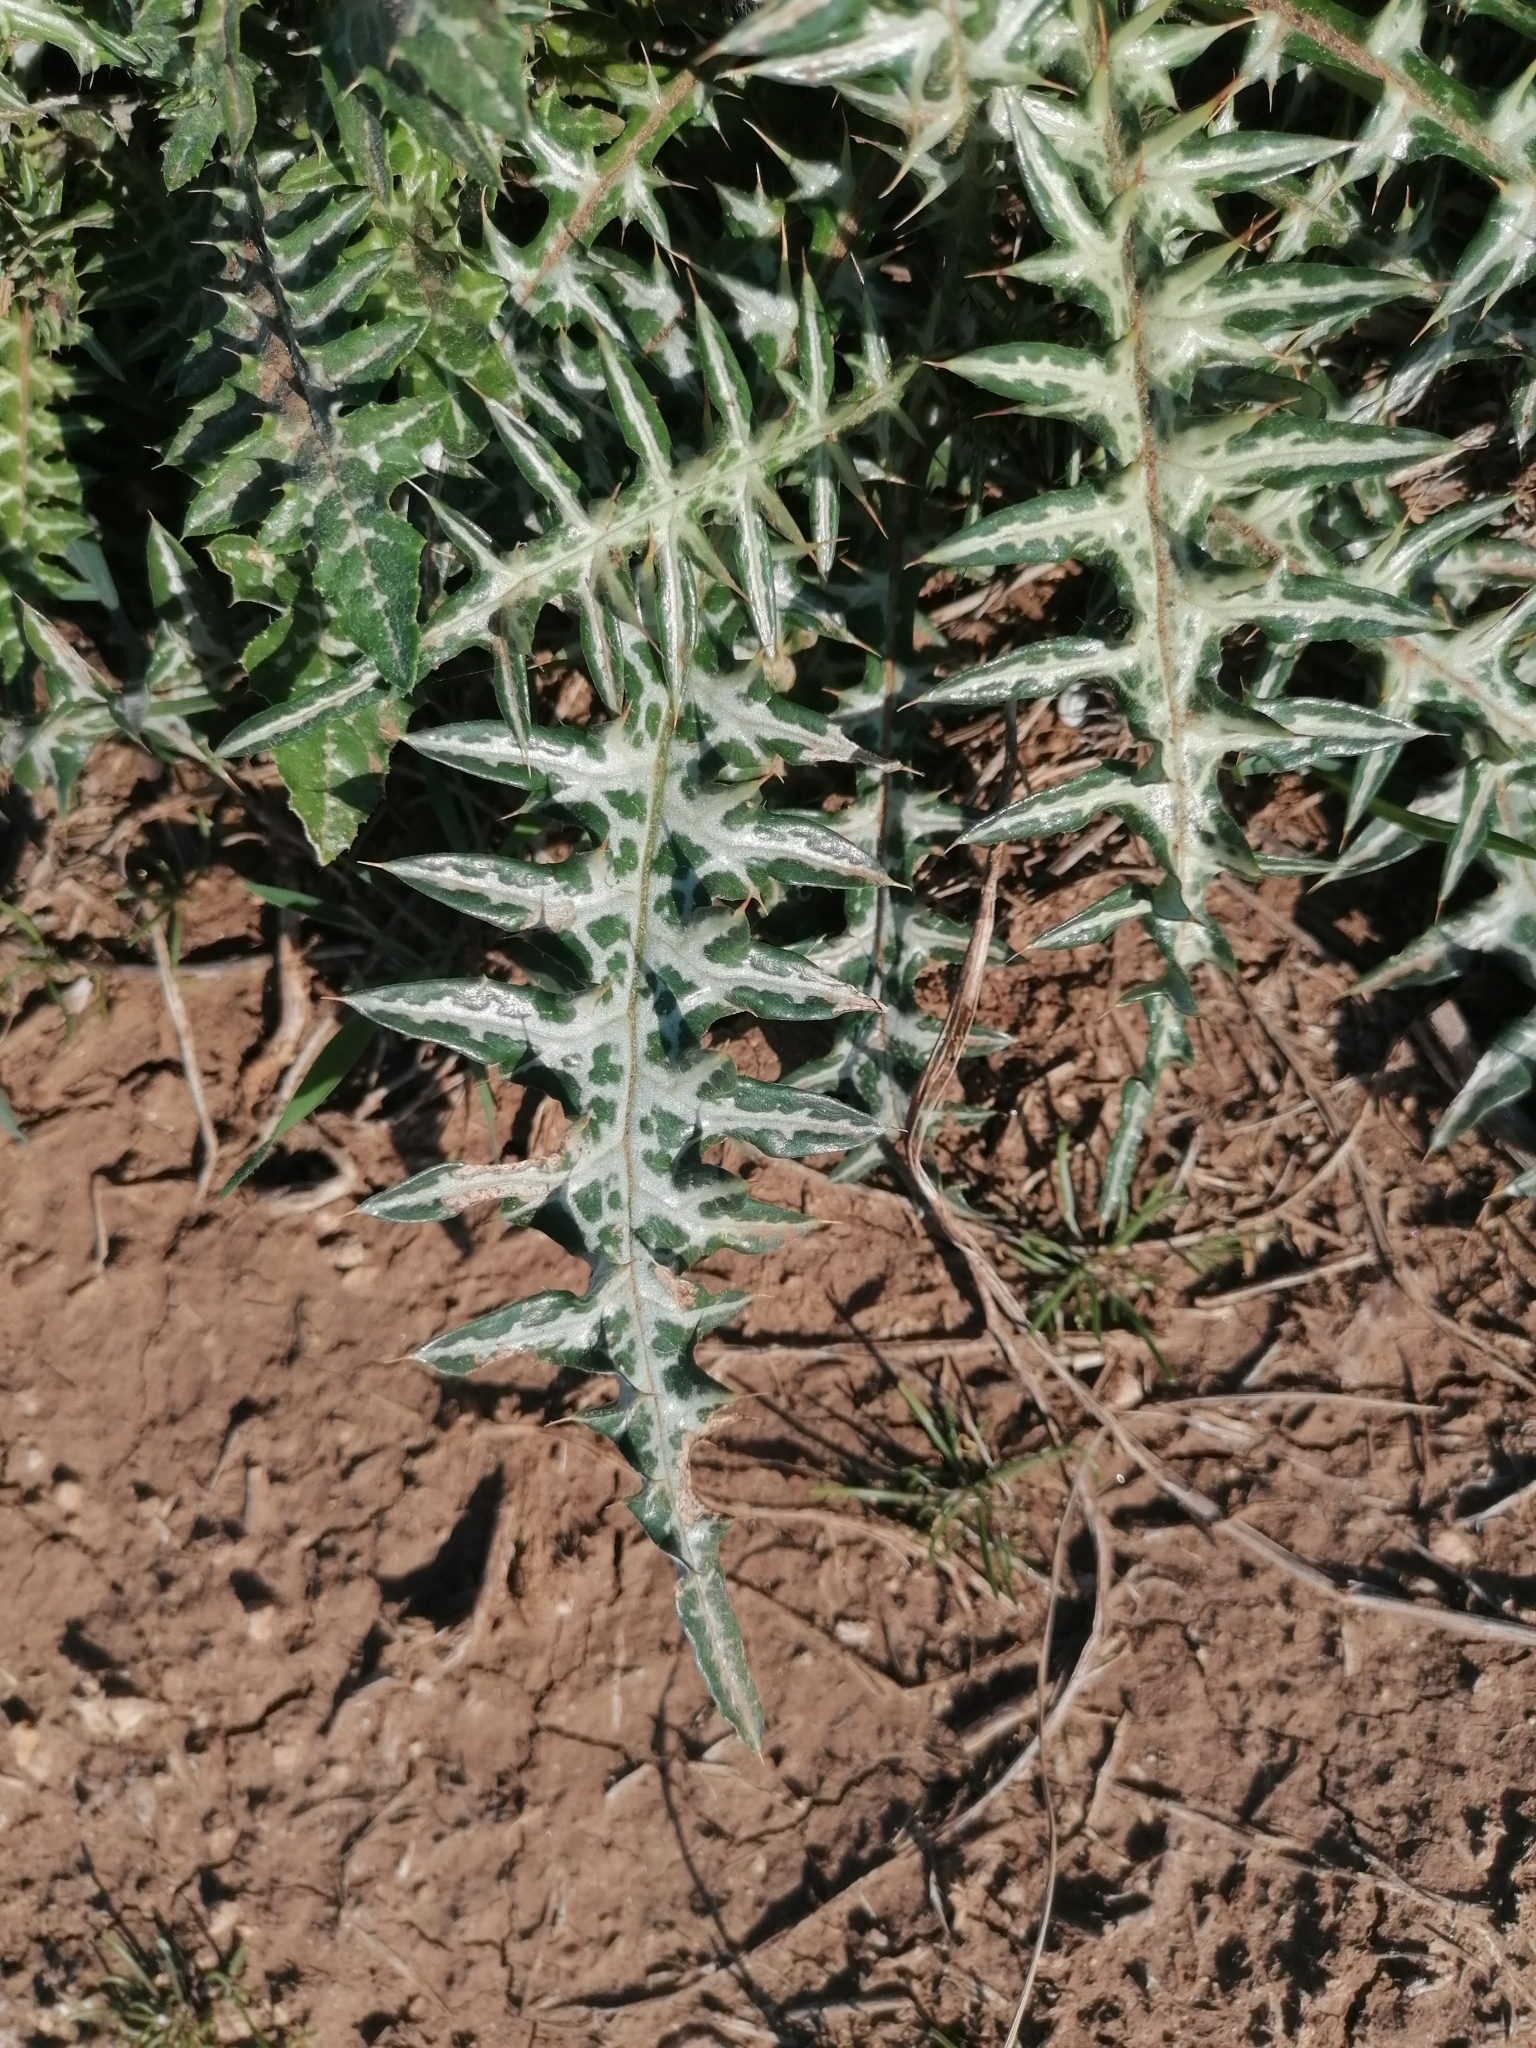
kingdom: Plantae
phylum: Tracheophyta
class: Magnoliopsida
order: Asterales
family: Asteraceae
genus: Galactites
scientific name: Galactites tomentosa
